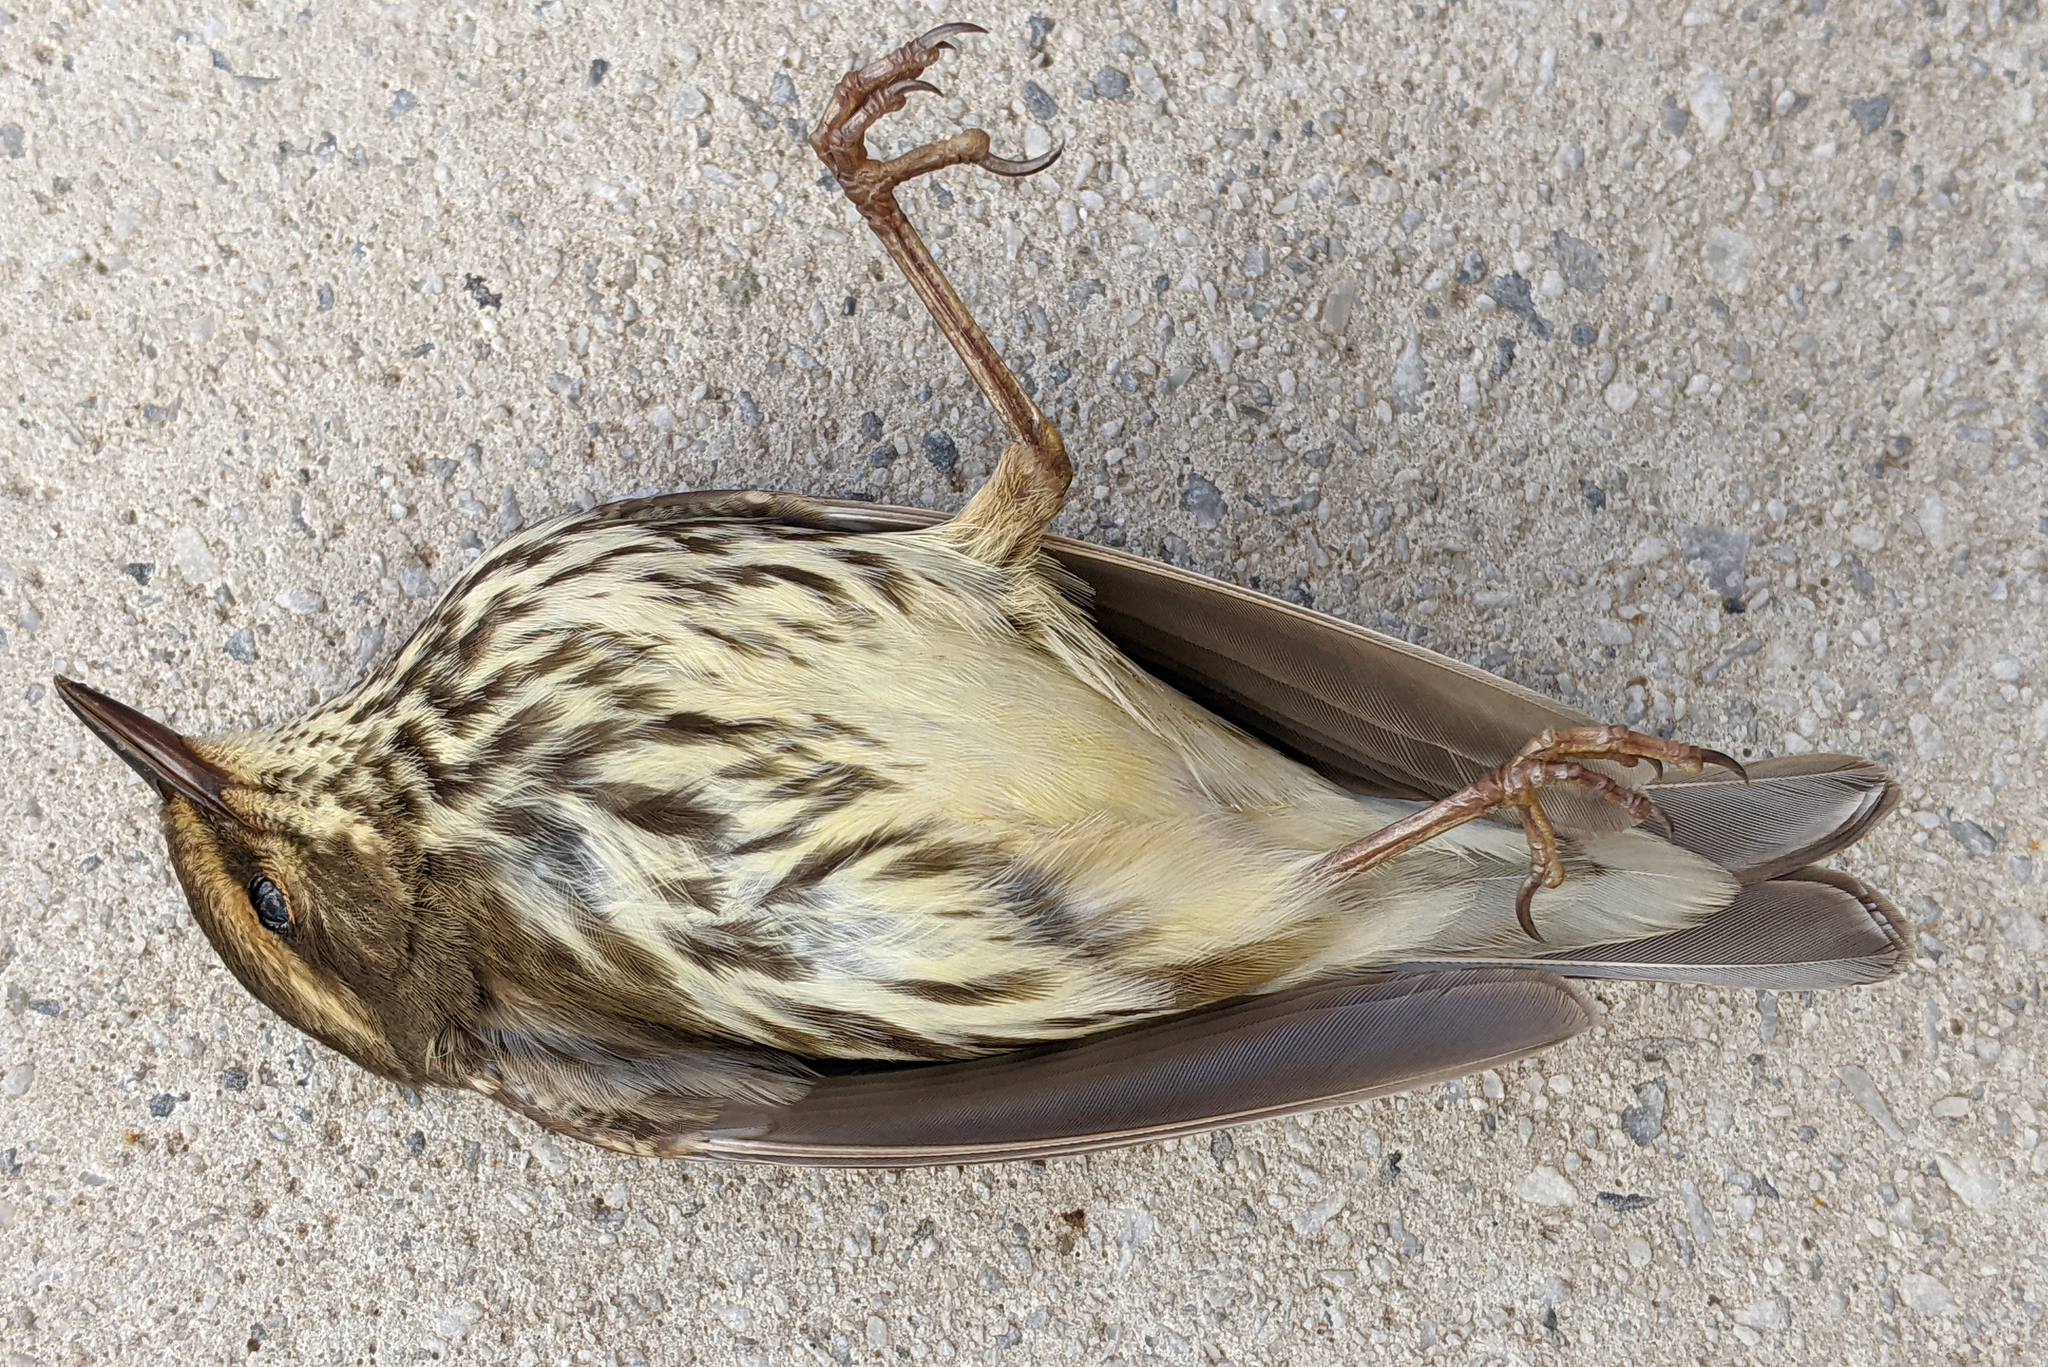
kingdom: Animalia
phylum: Chordata
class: Aves
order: Passeriformes
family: Parulidae
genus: Parkesia
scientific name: Parkesia noveboracensis
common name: Northern waterthrush
